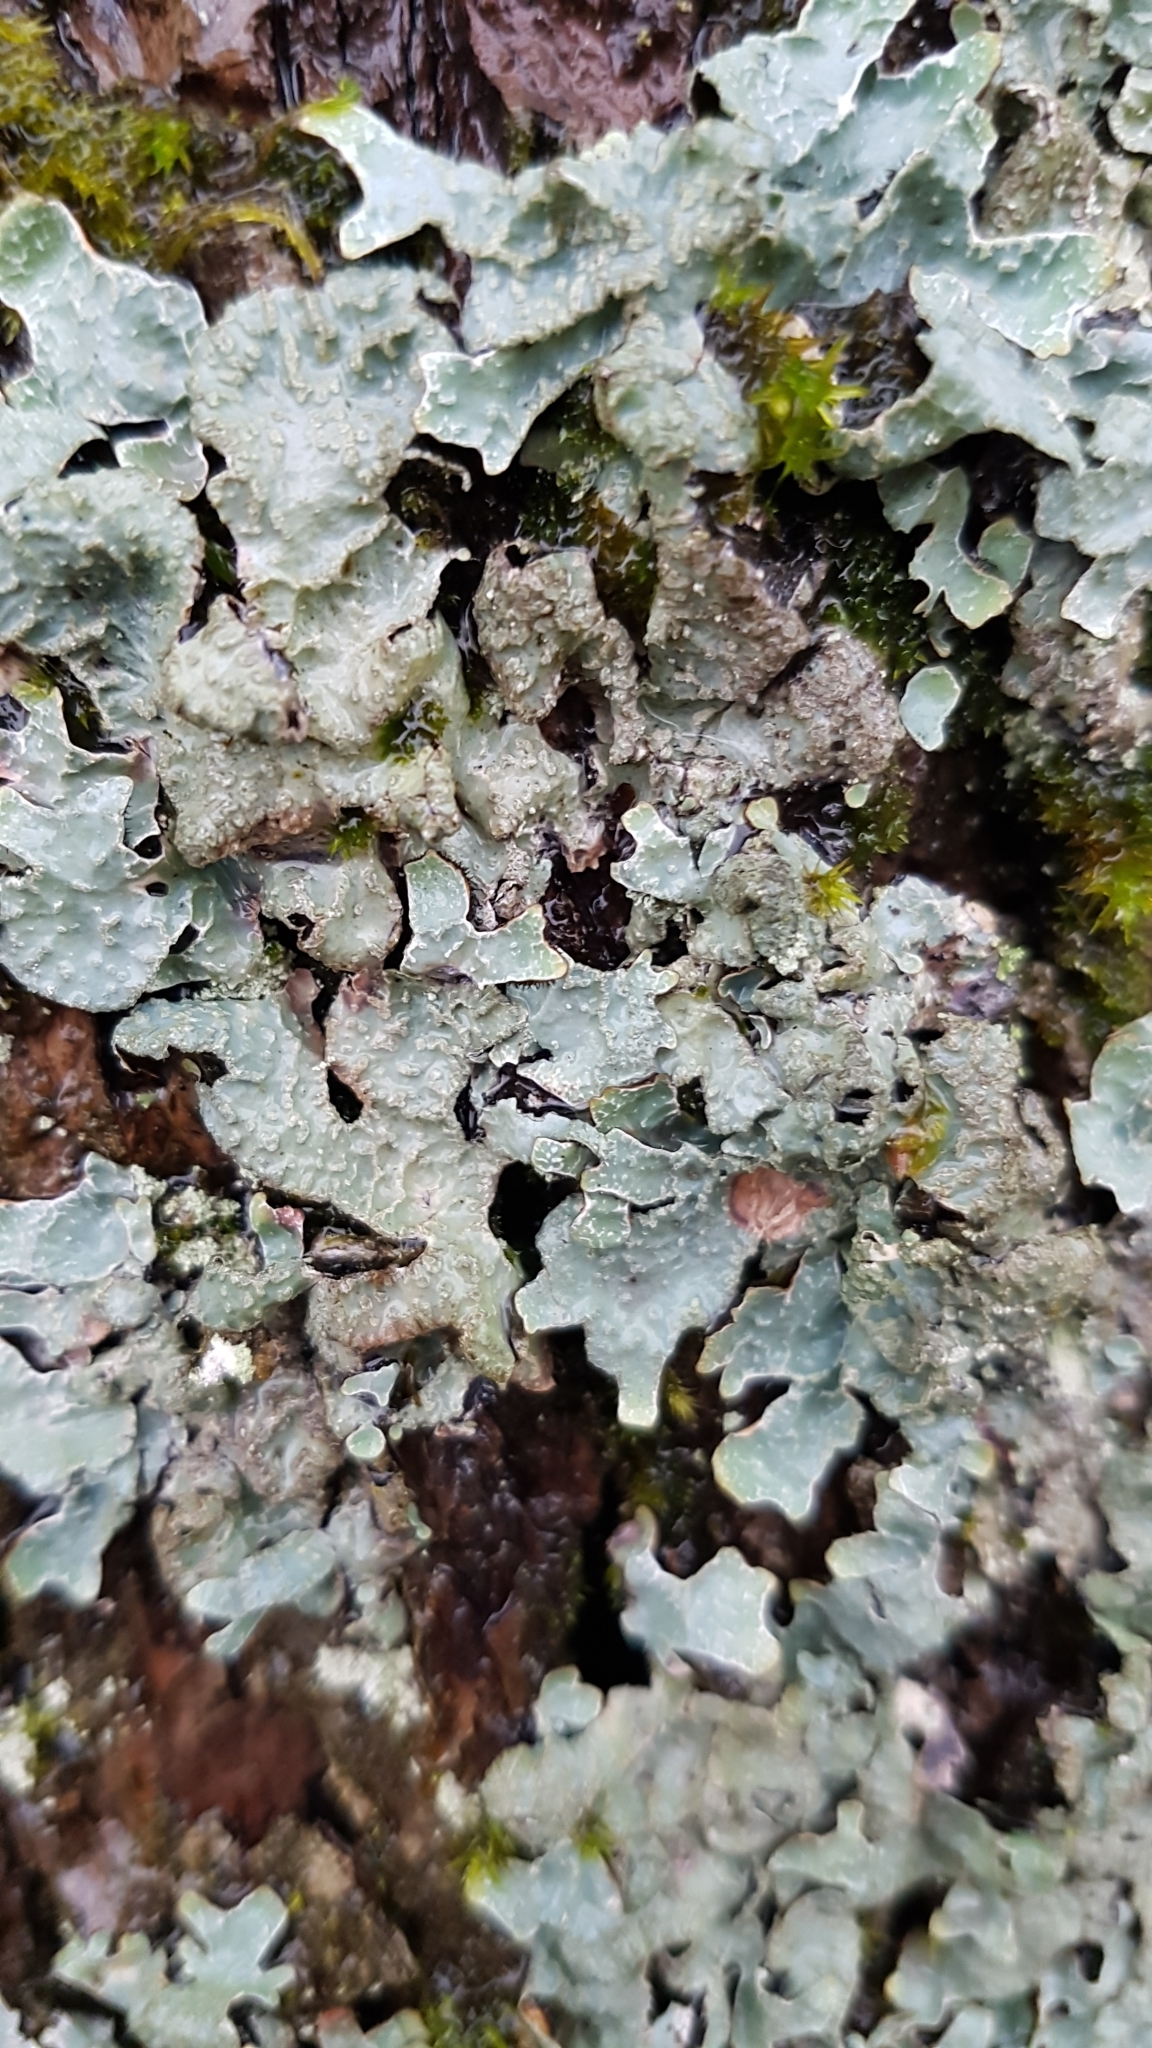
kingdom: Fungi
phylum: Ascomycota
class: Lecanoromycetes
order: Lecanorales
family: Parmeliaceae
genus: Parmelia
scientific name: Parmelia sulcata
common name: Netted shield lichen
